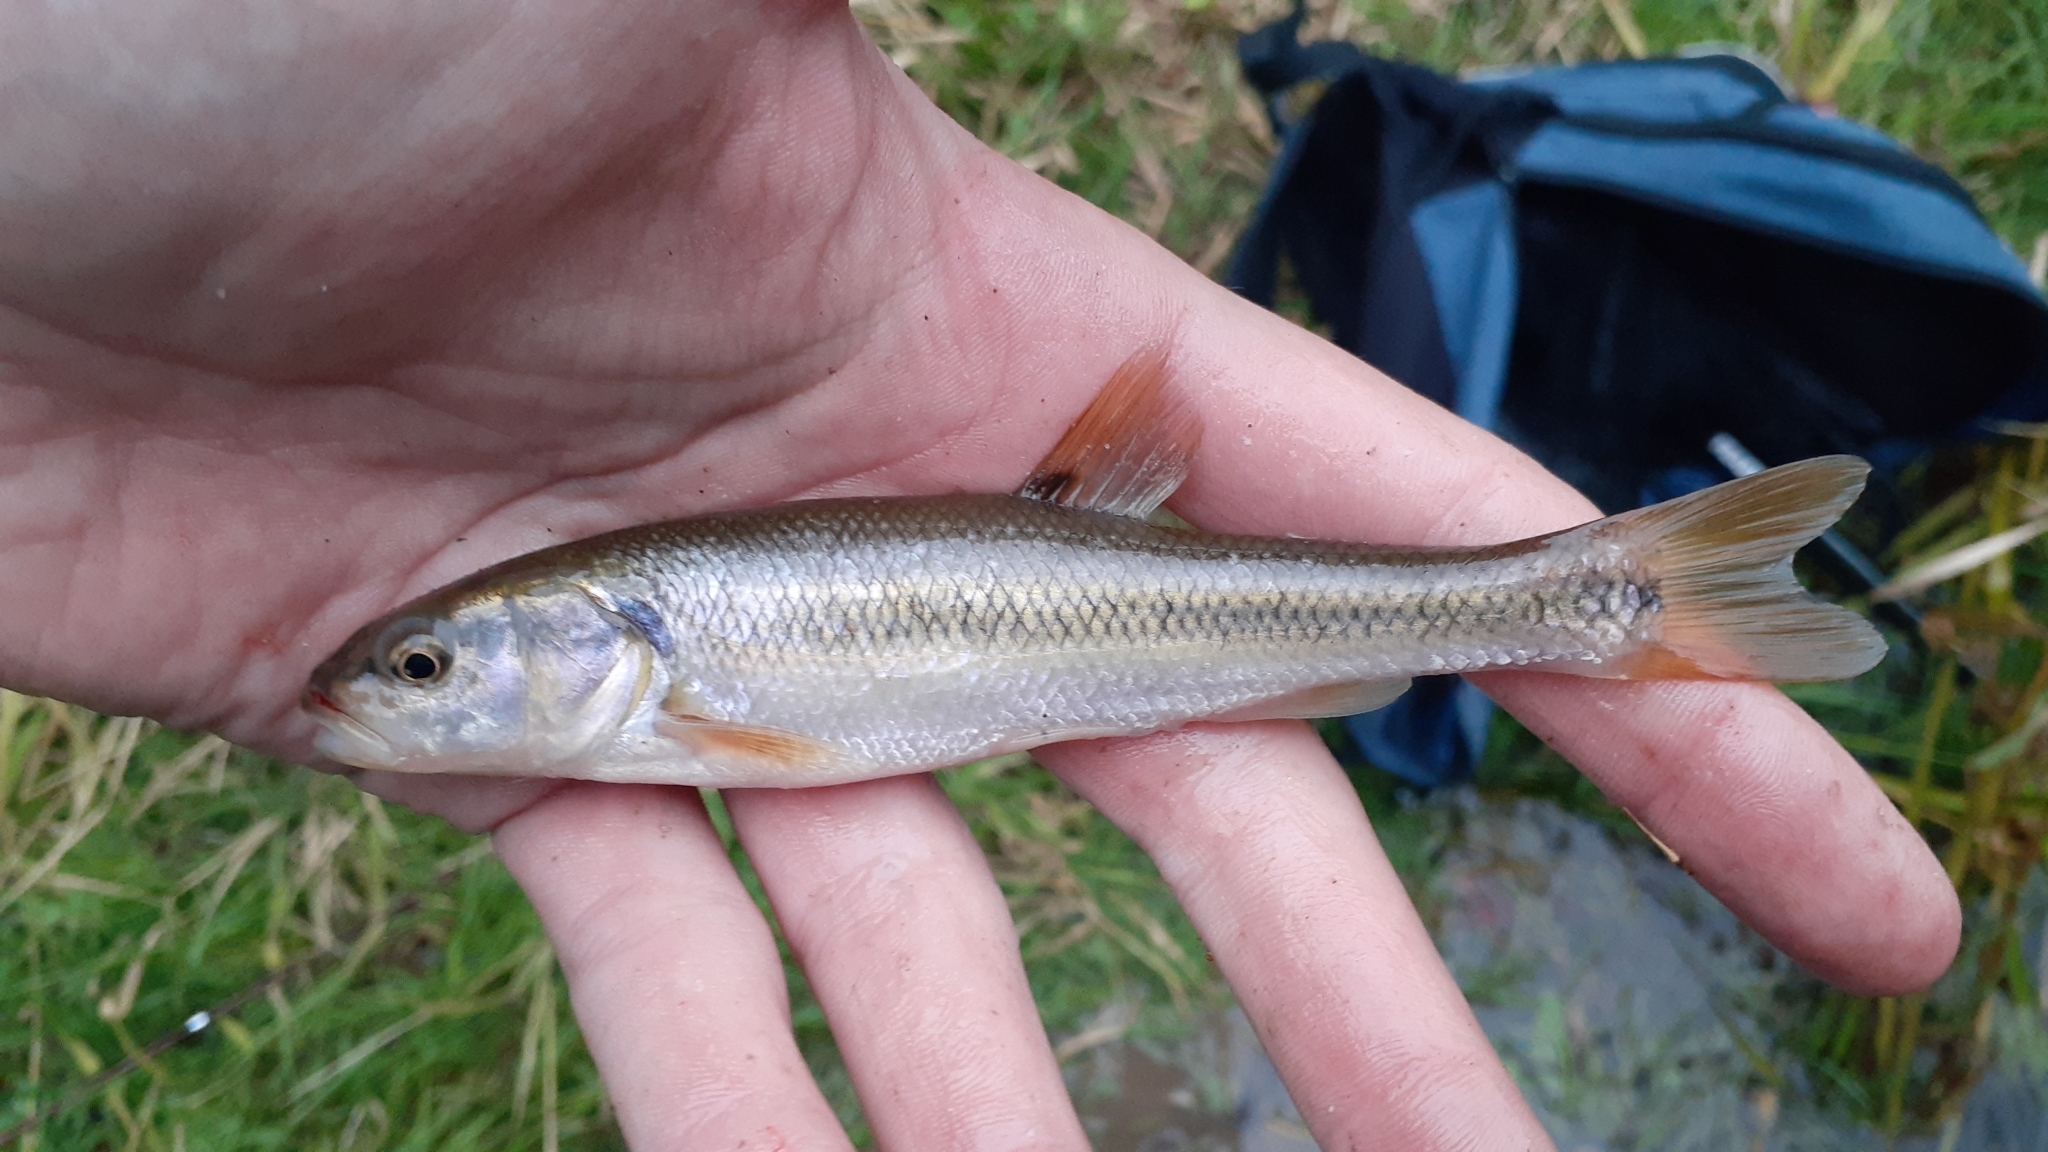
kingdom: Animalia
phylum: Chordata
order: Cypriniformes
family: Cyprinidae
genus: Semotilus
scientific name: Semotilus atromaculatus
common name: Creek chub
